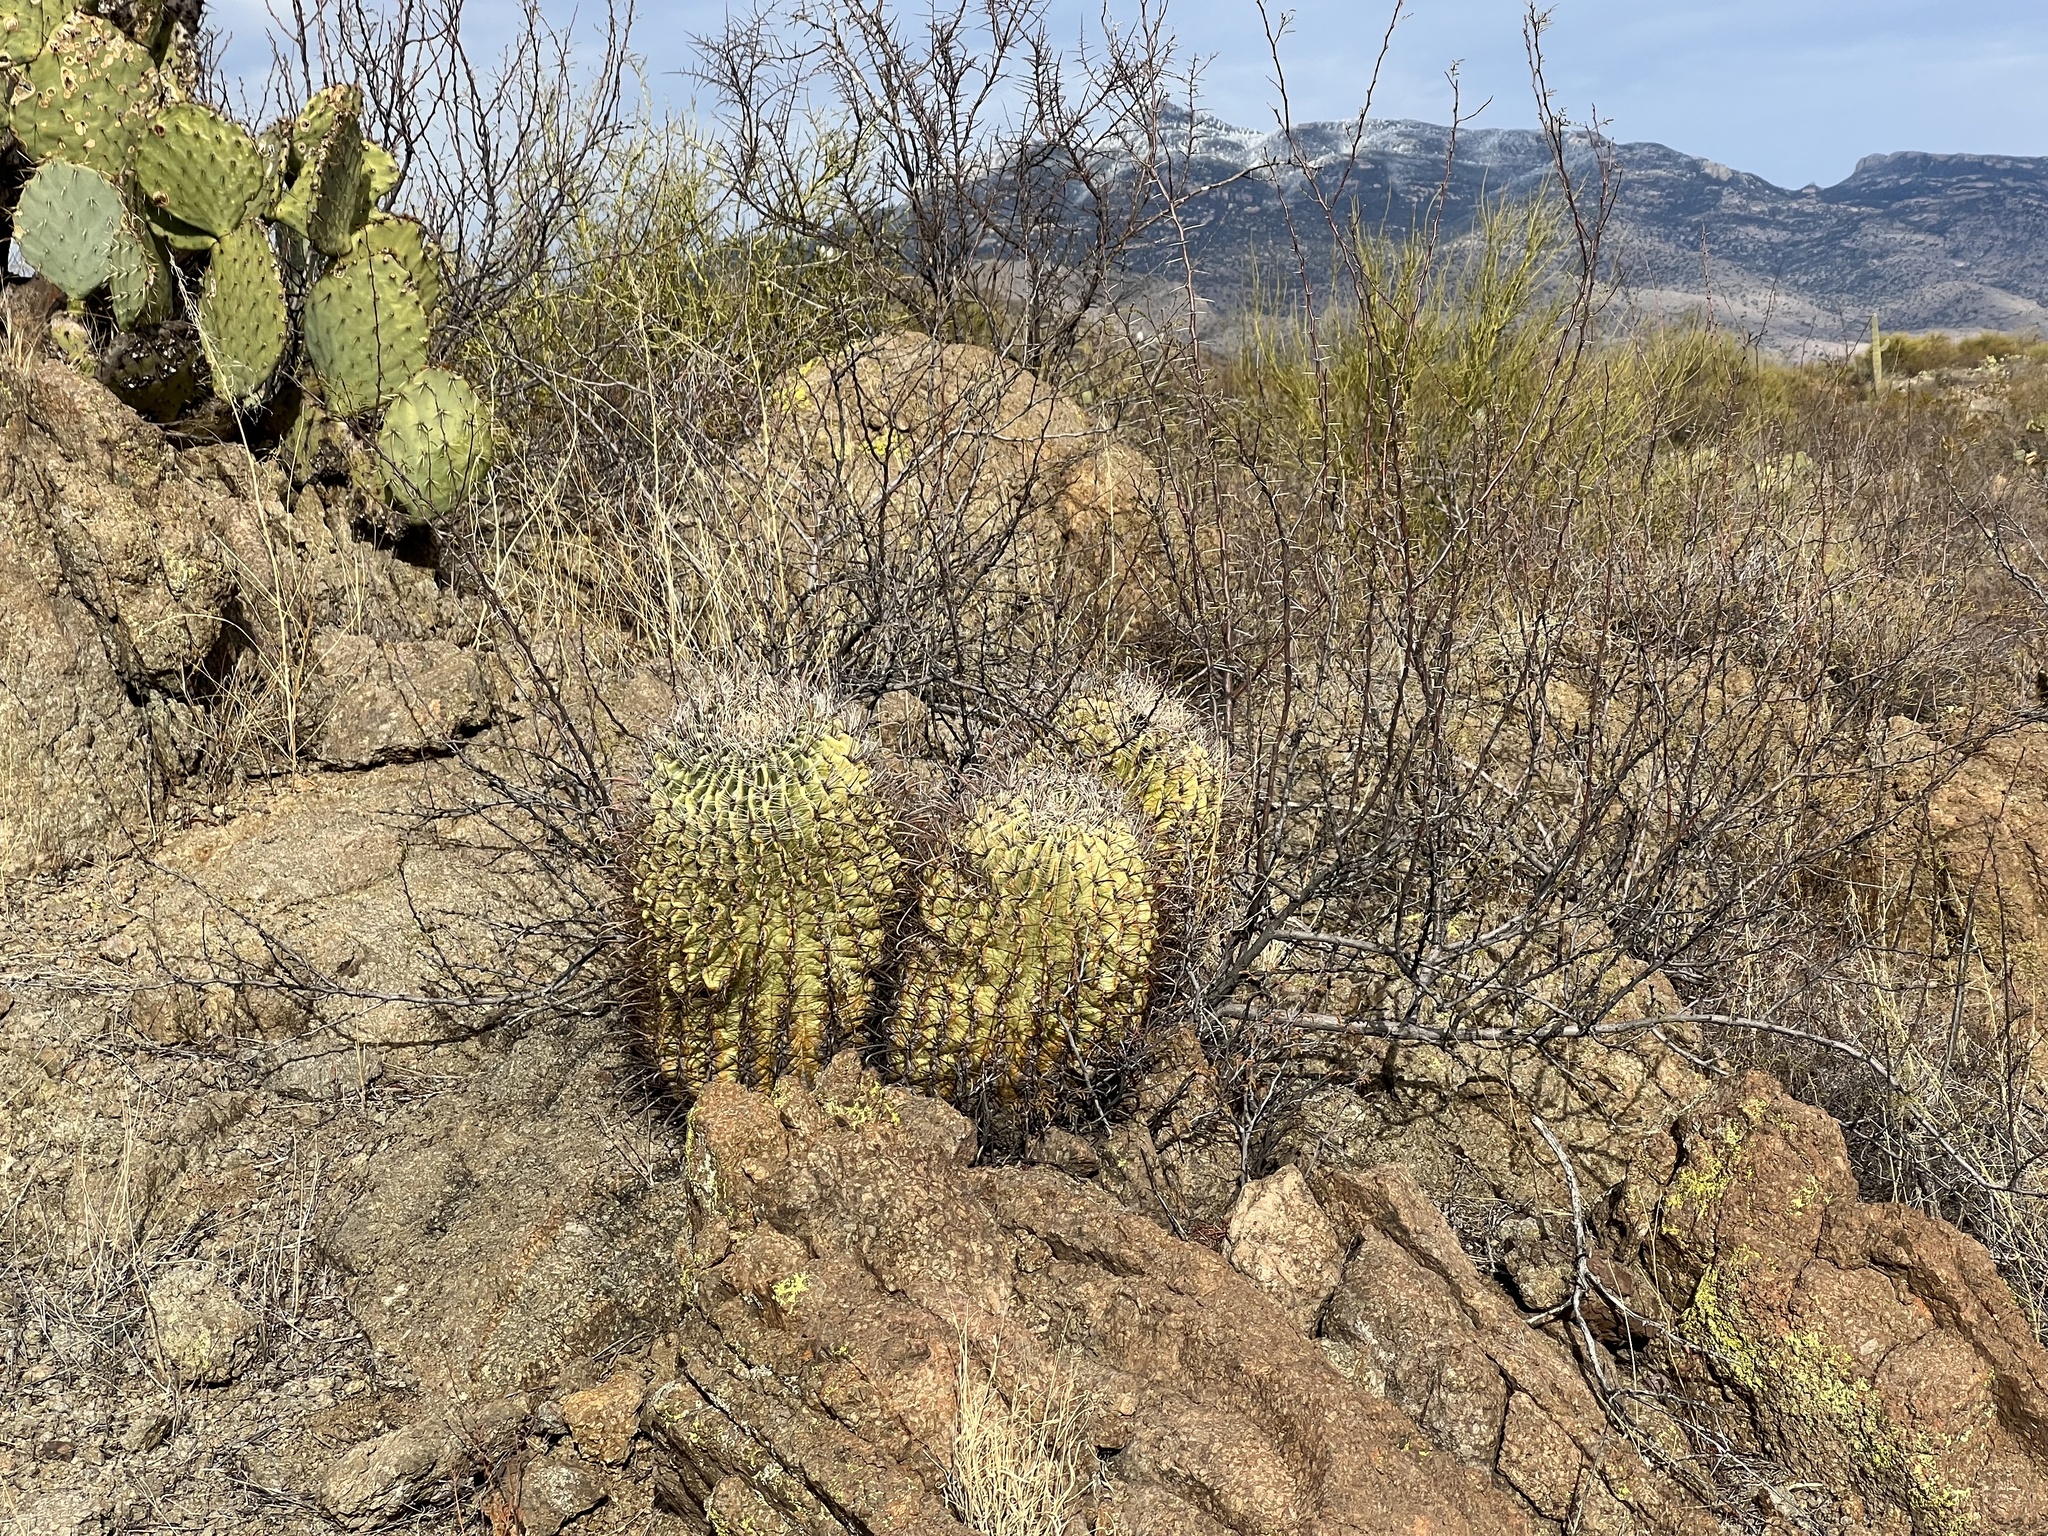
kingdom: Plantae
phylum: Tracheophyta
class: Magnoliopsida
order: Caryophyllales
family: Cactaceae
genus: Ferocactus
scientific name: Ferocactus wislizeni
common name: Candy barrel cactus
